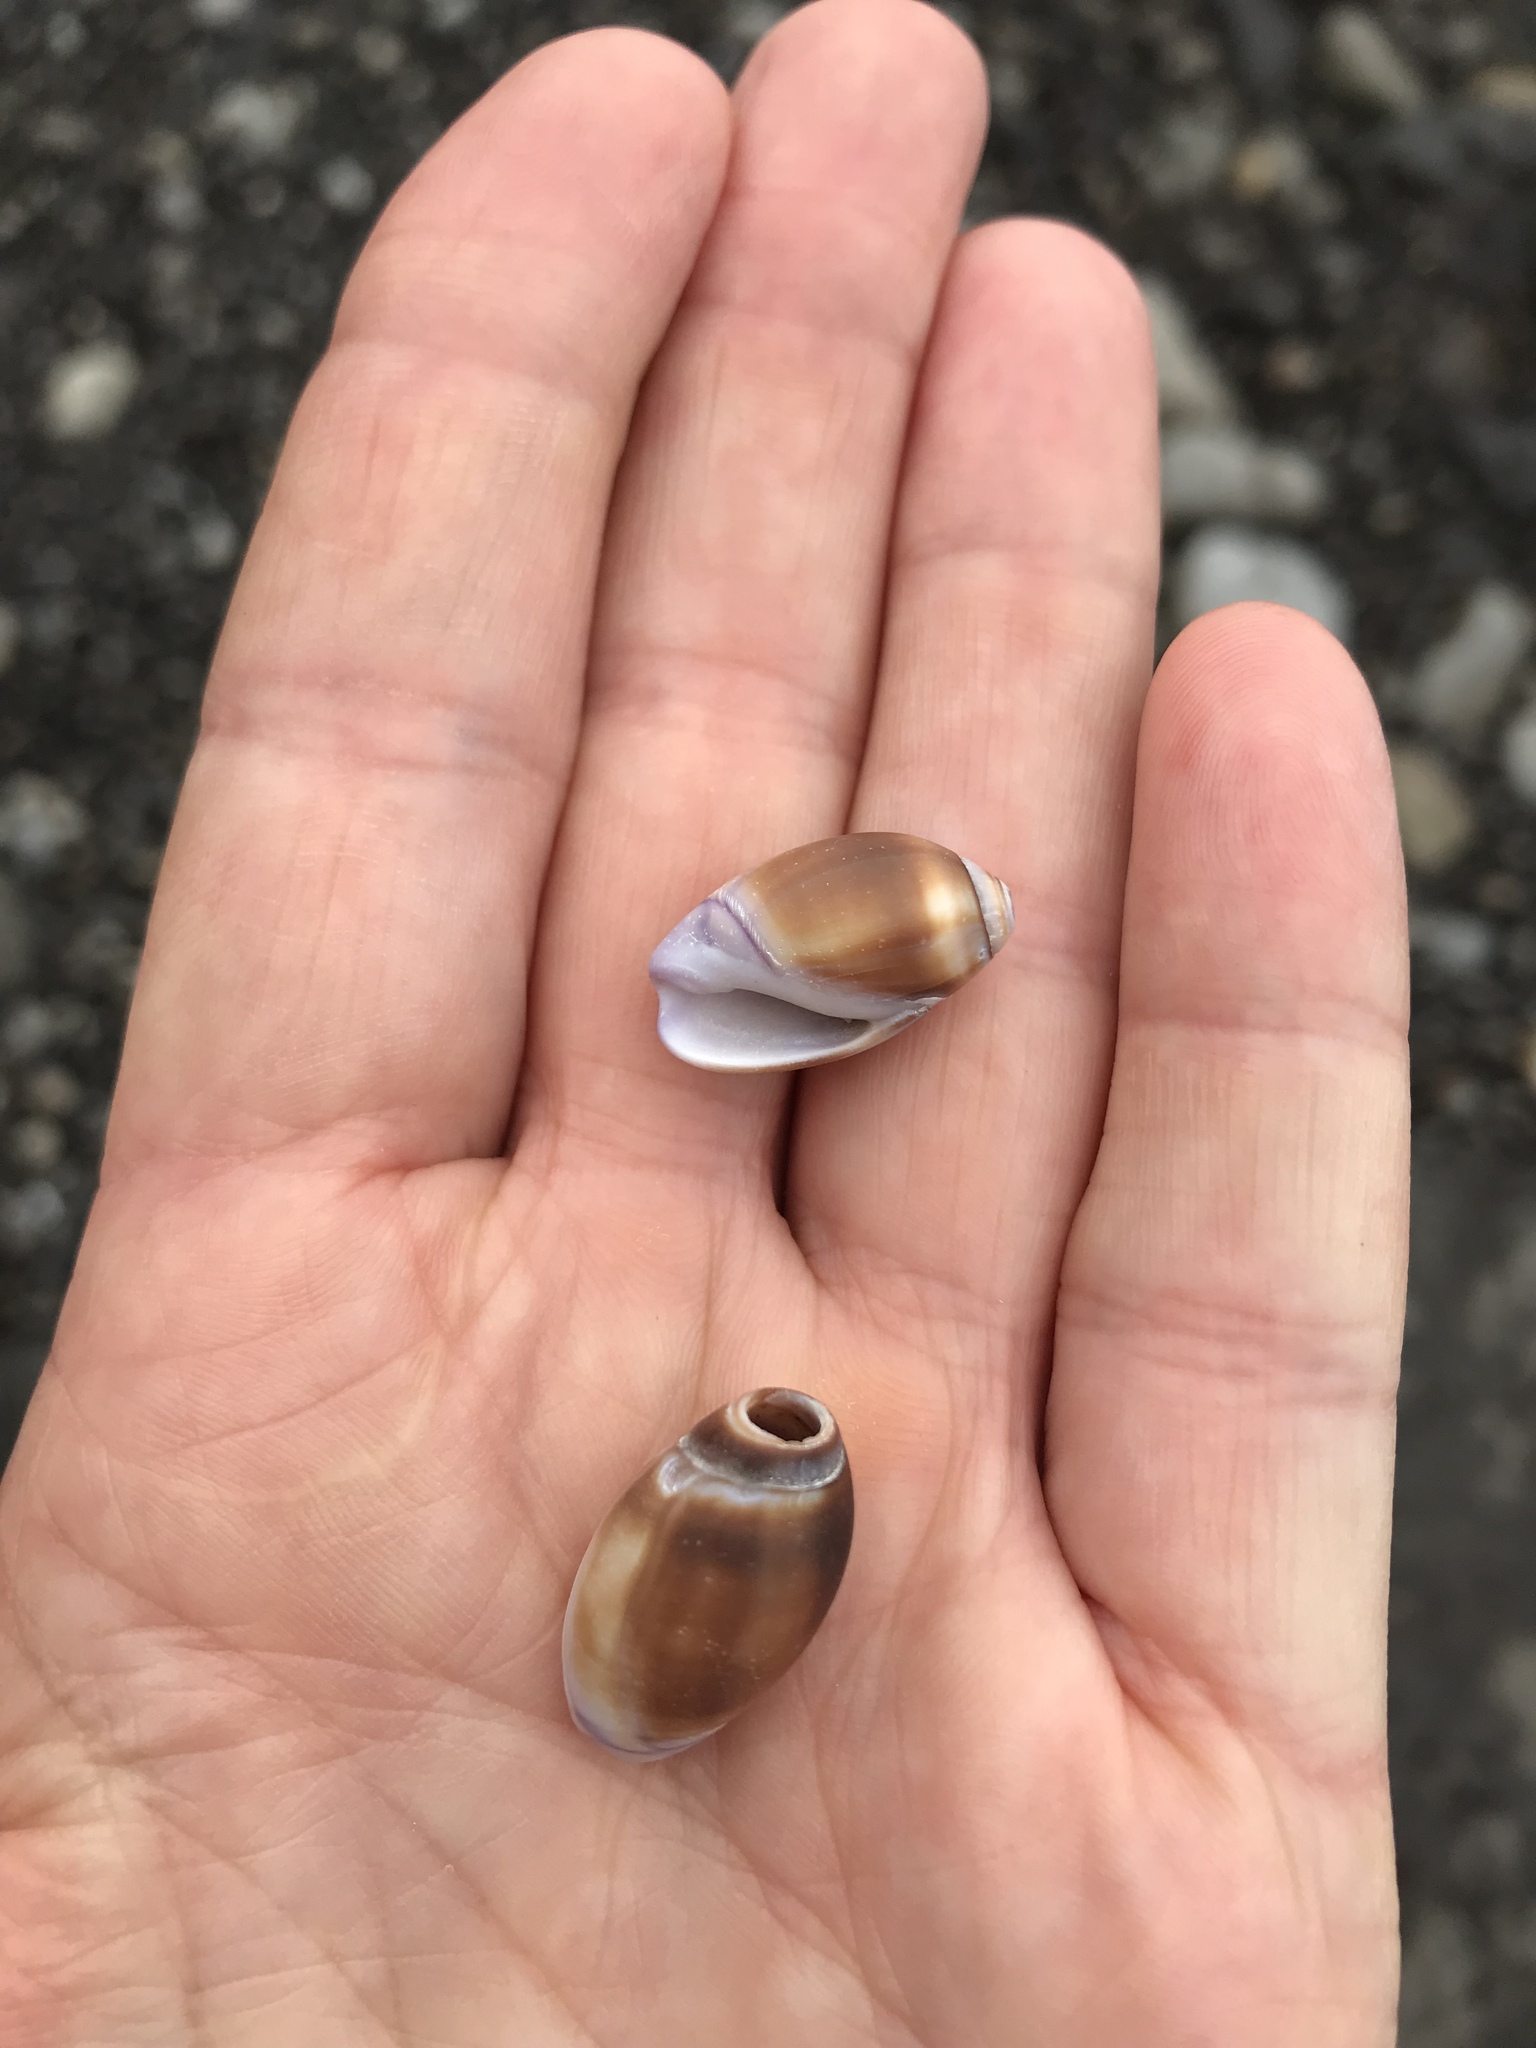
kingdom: Animalia
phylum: Mollusca
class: Gastropoda
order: Neogastropoda
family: Olividae
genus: Callianax
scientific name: Callianax biplicata
